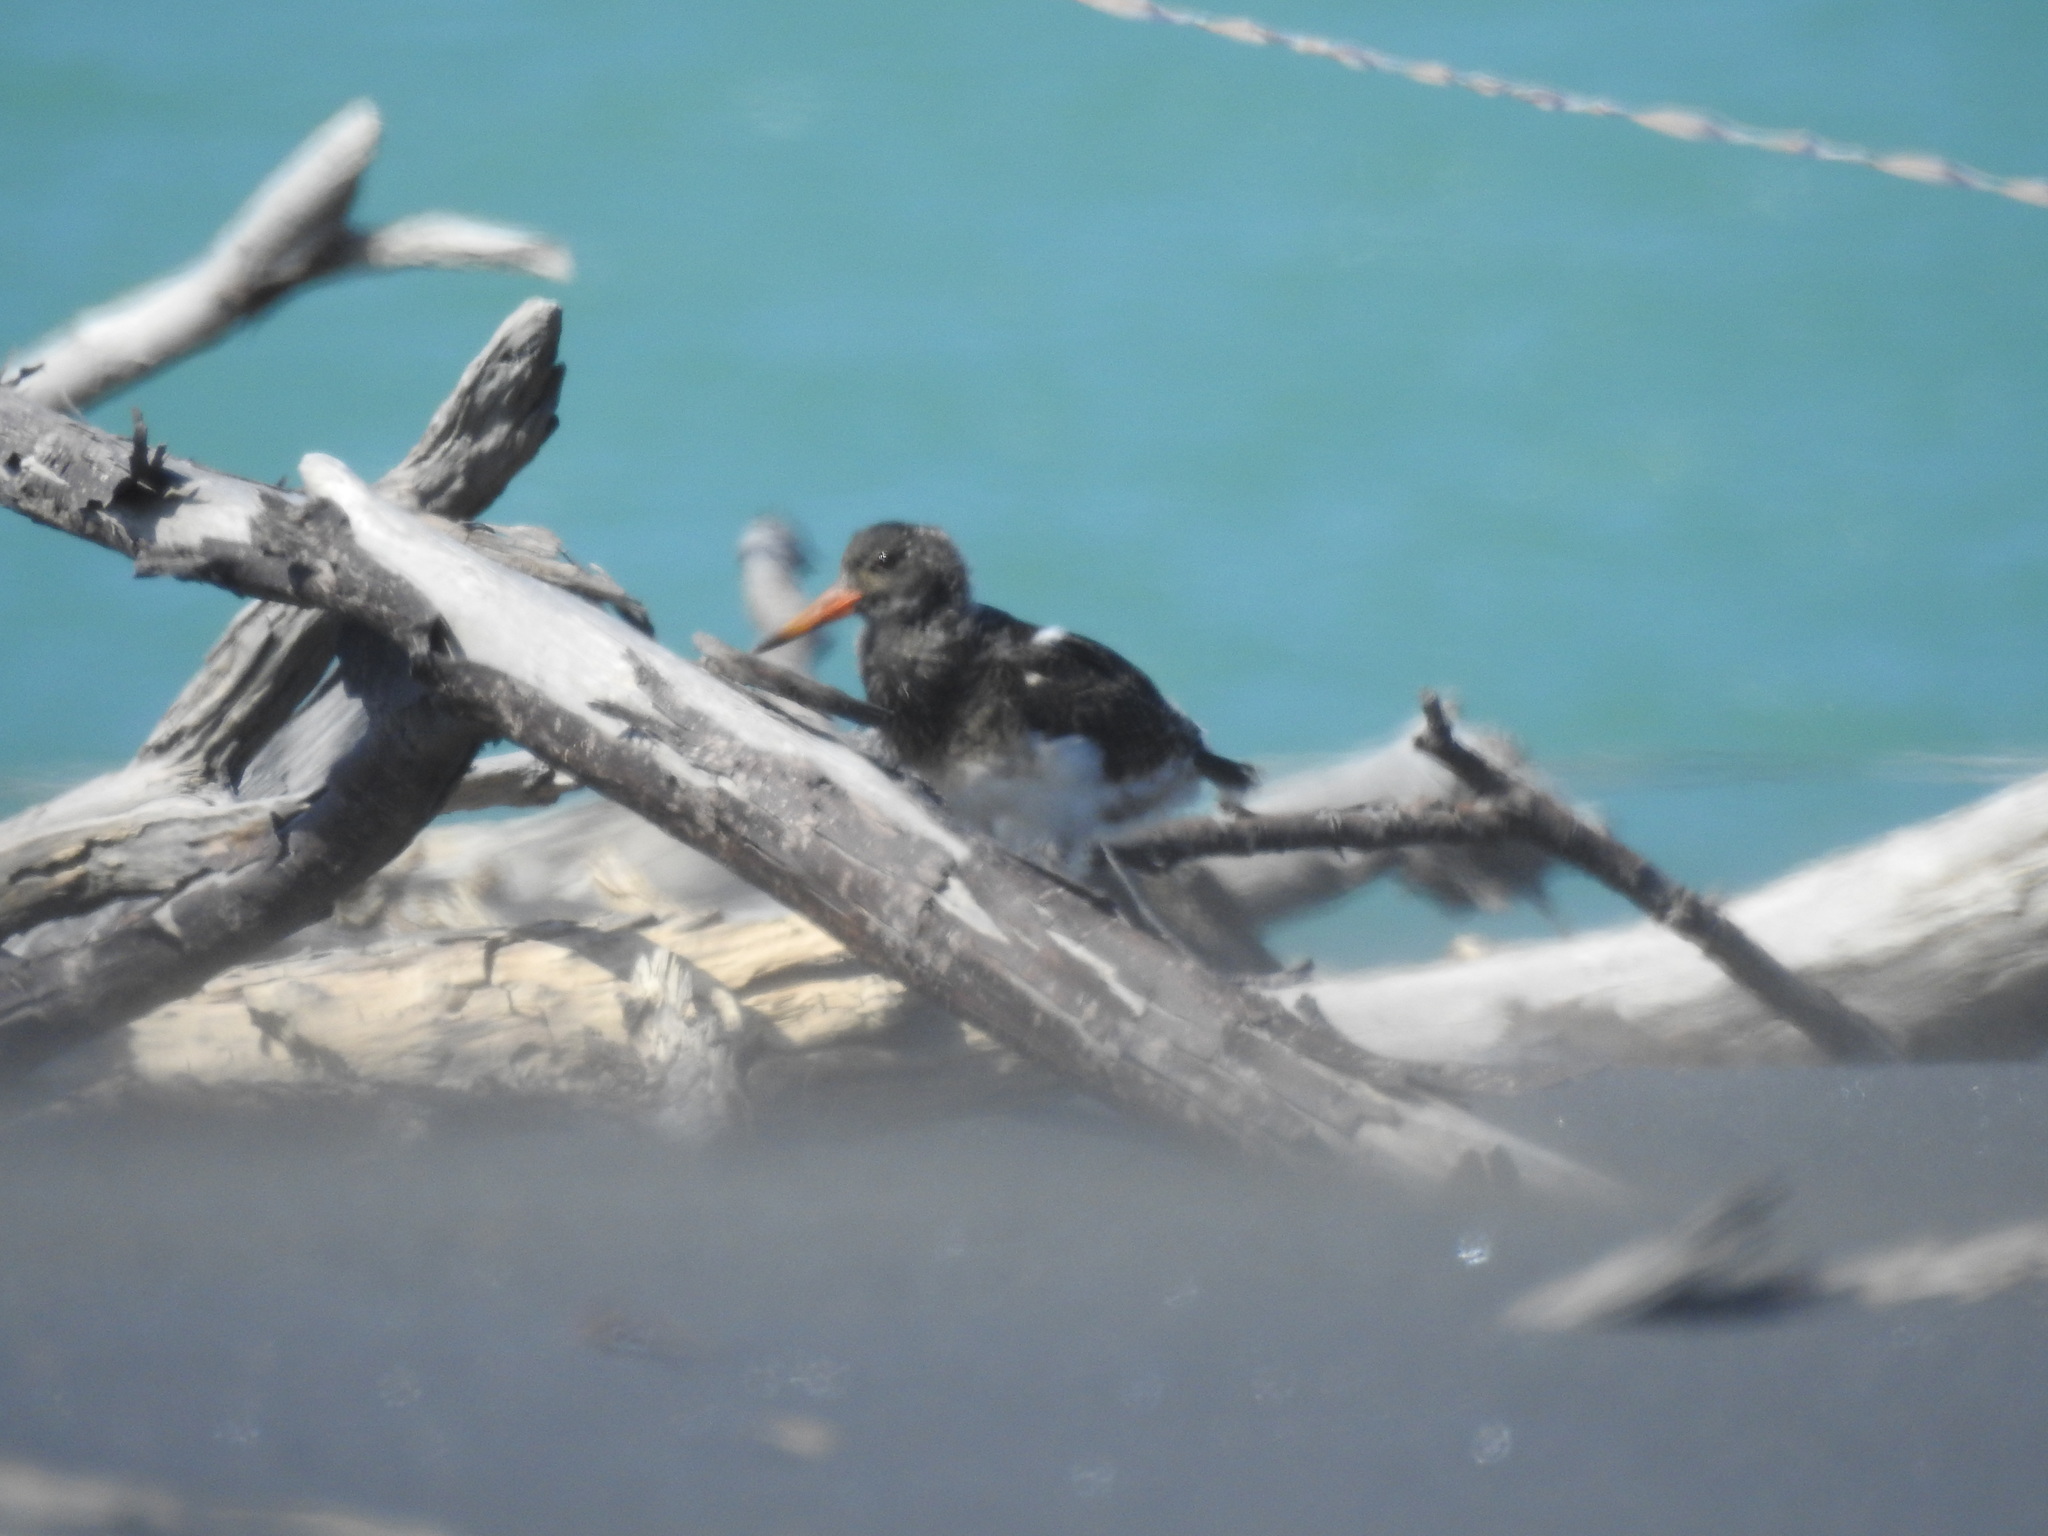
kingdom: Animalia
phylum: Chordata
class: Aves
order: Charadriiformes
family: Haematopodidae
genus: Haematopus
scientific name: Haematopus unicolor
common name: Variable oystercatcher
